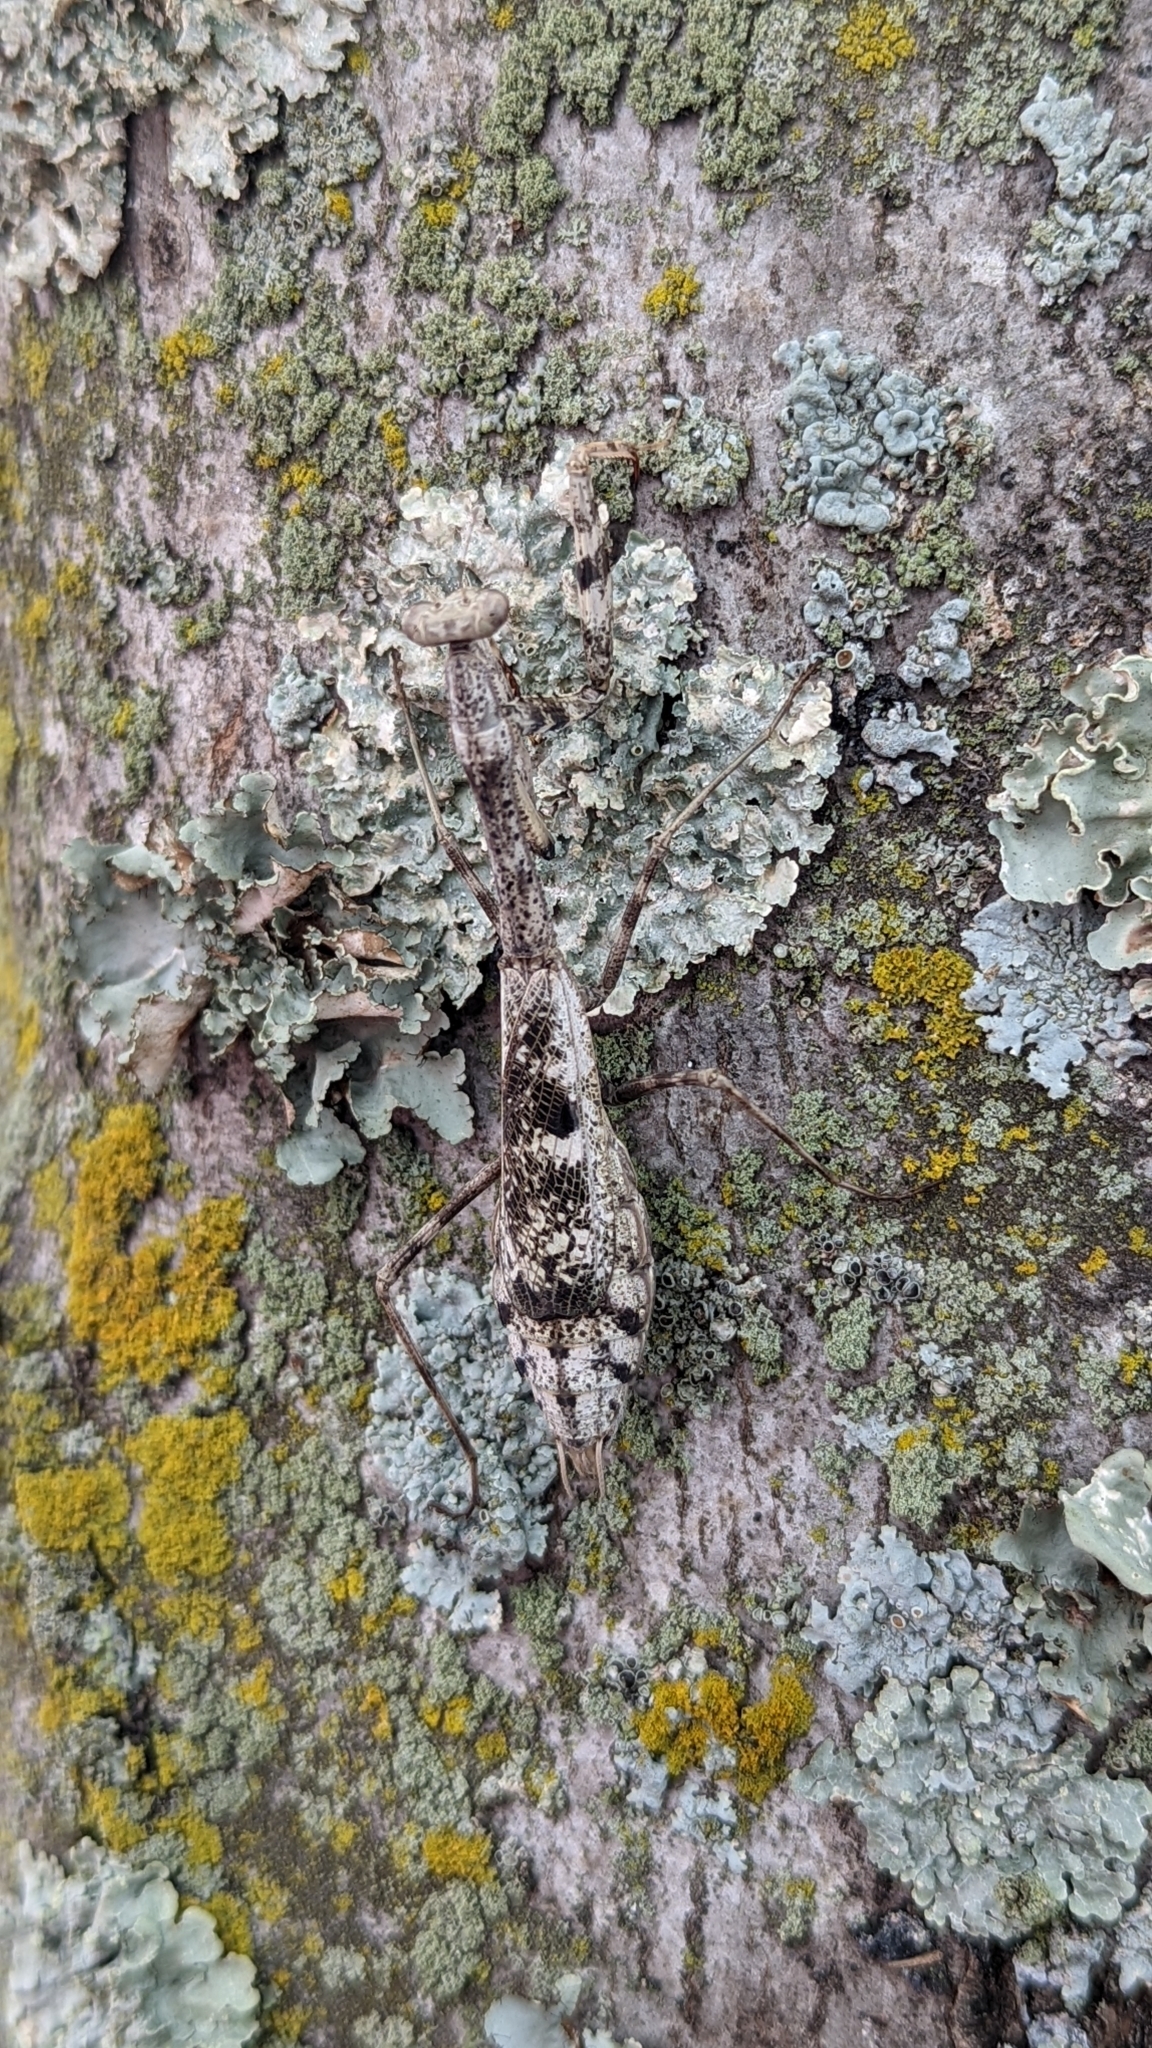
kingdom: Animalia
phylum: Arthropoda
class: Insecta
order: Mantodea
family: Mantidae
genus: Stagmomantis
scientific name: Stagmomantis carolina
